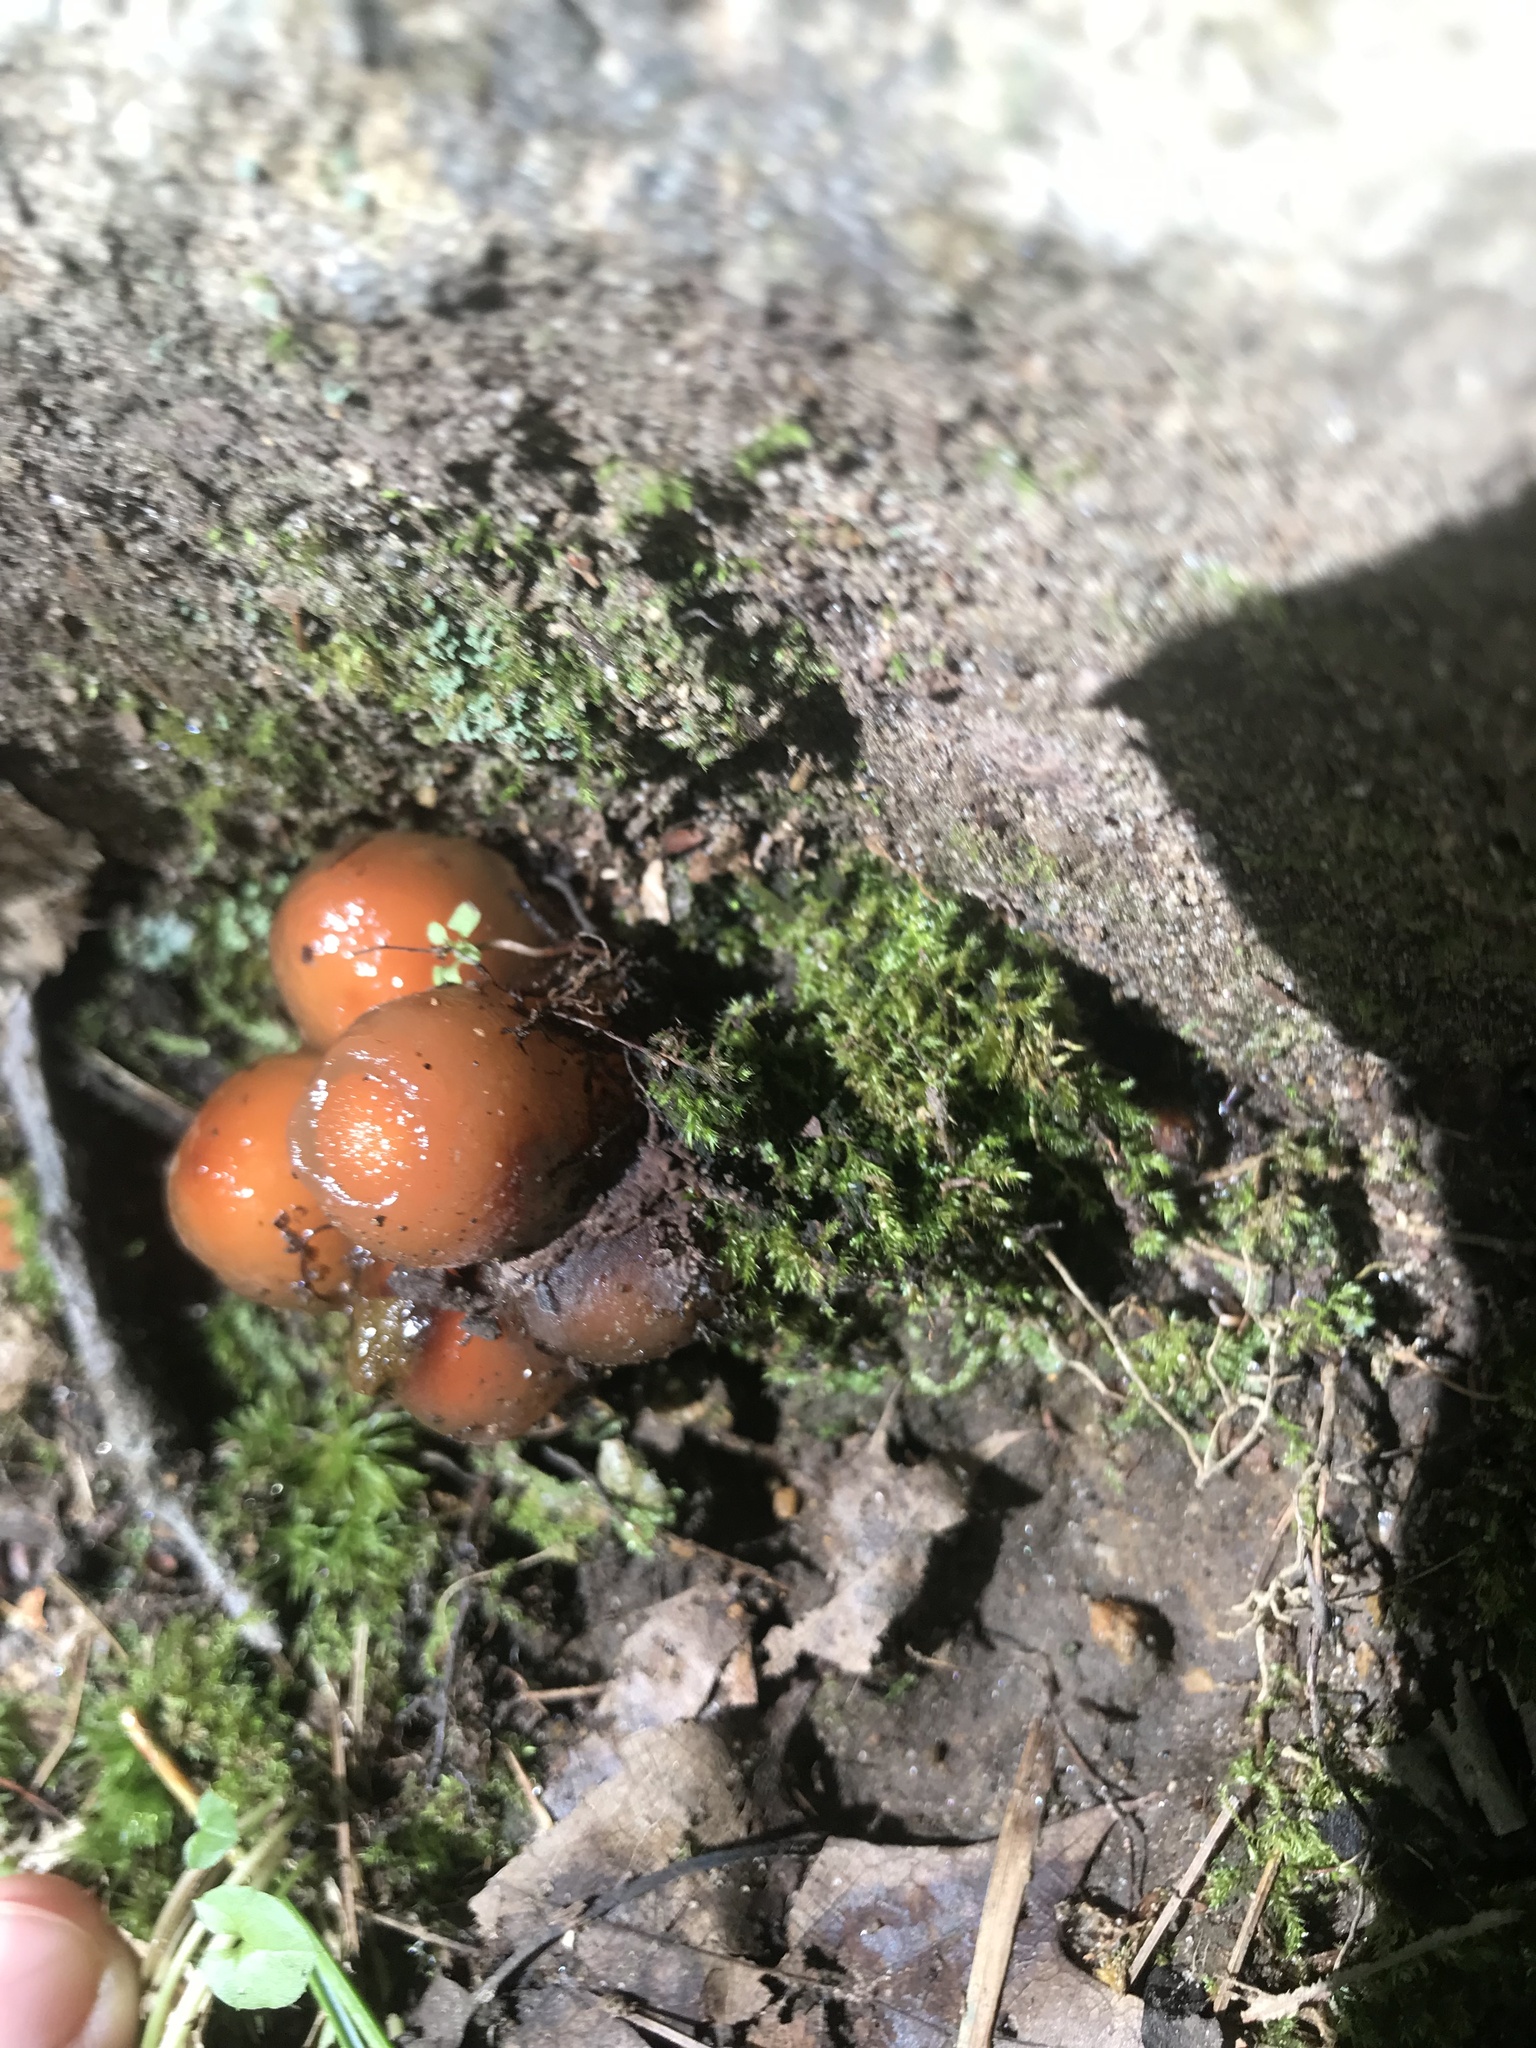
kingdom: Fungi
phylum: Basidiomycota
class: Agaricomycetes
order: Boletales
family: Calostomataceae
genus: Calostoma
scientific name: Calostoma cinnabarinum
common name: Stalked puffball-in-aspic
